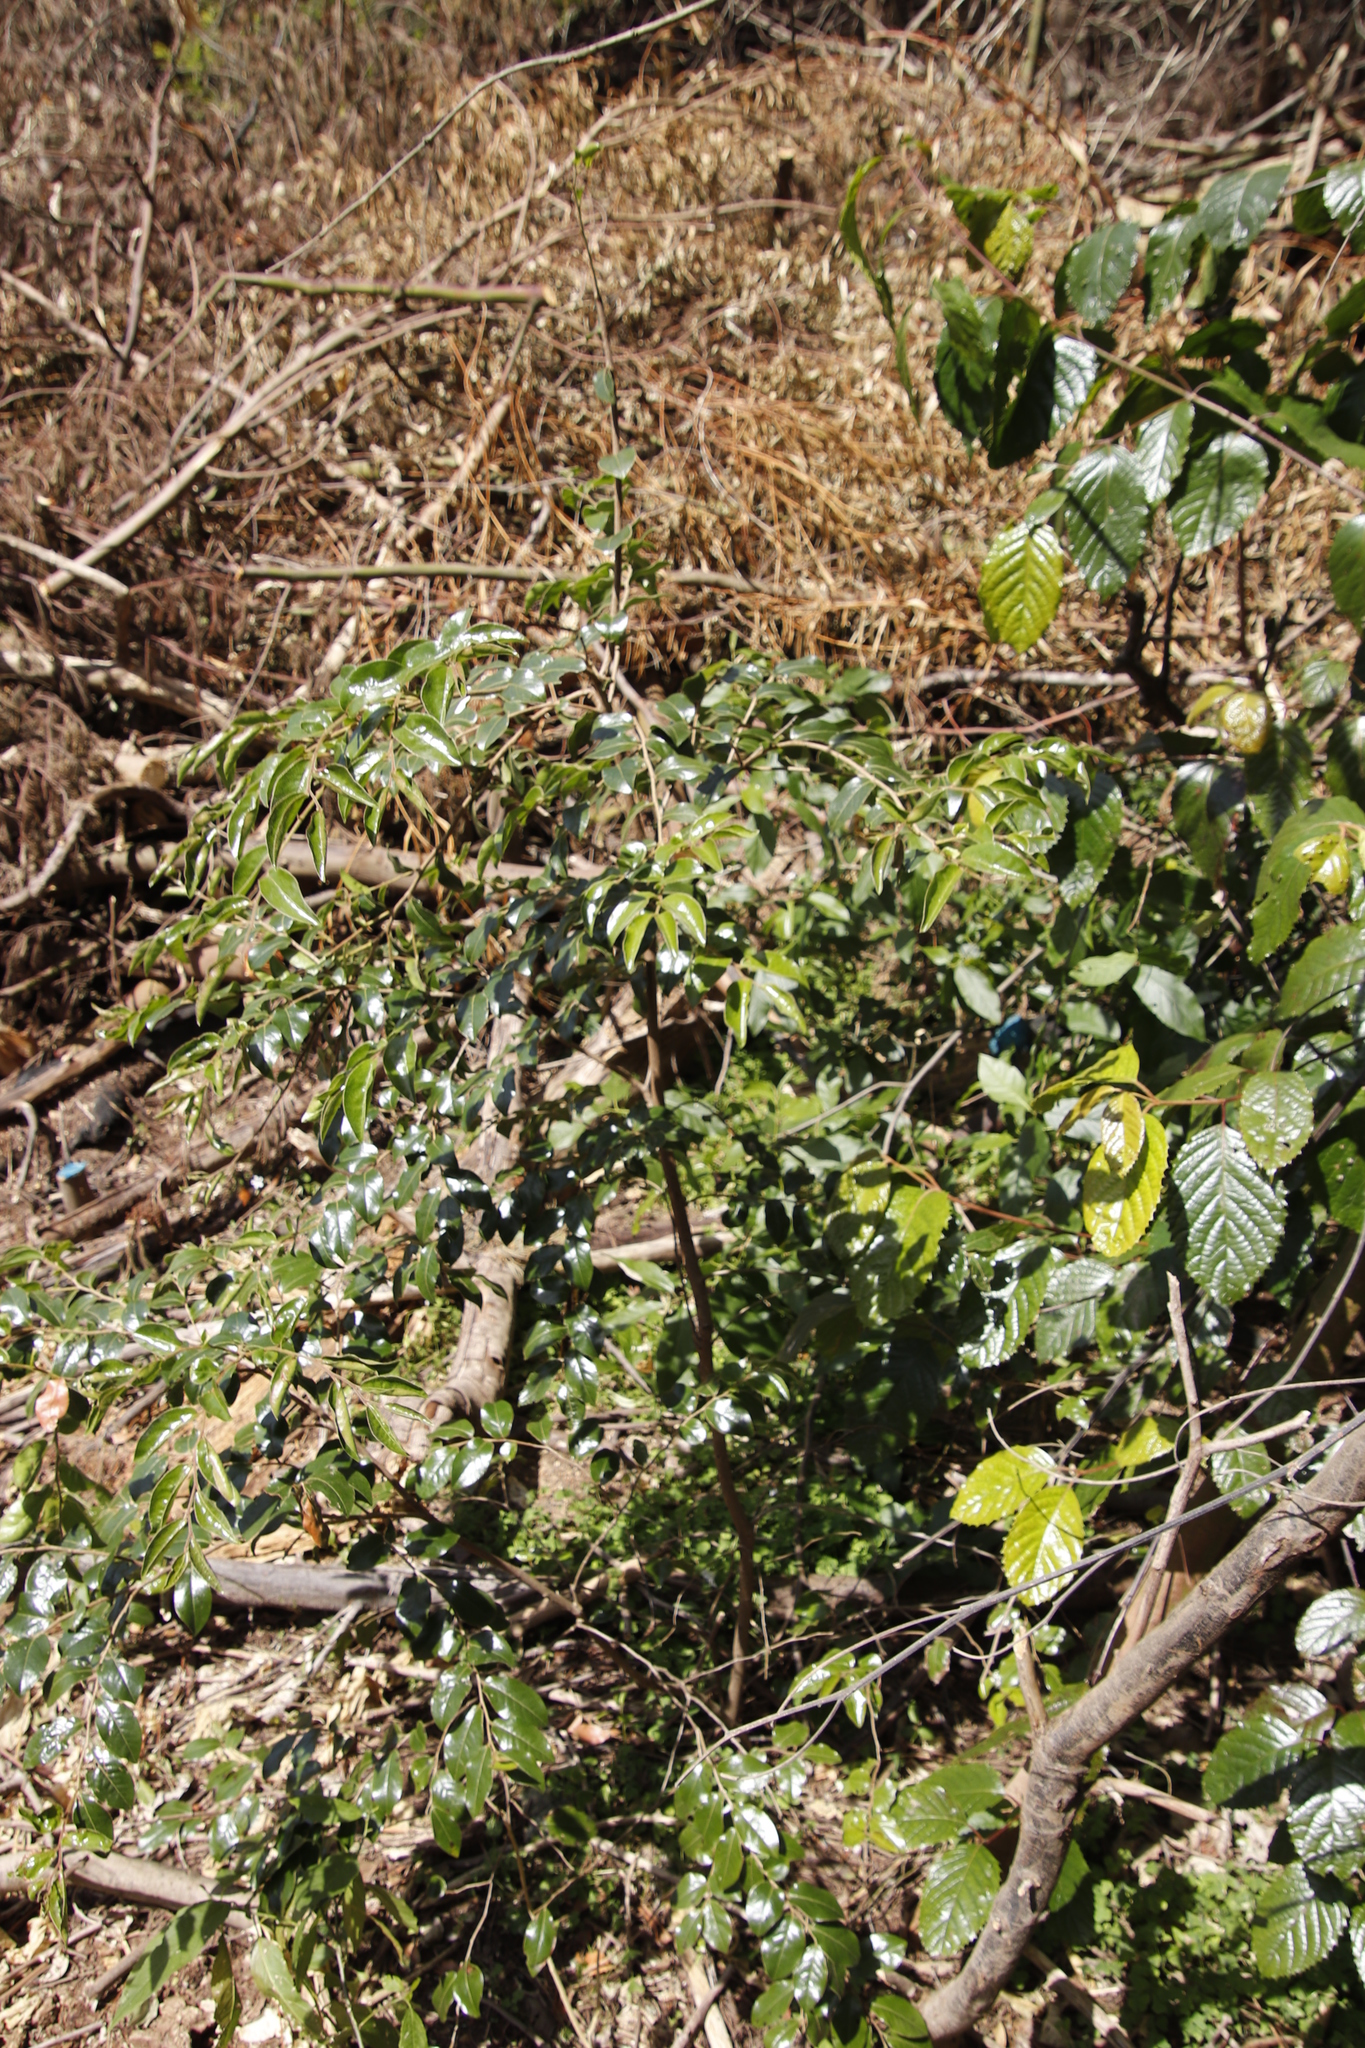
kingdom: Plantae
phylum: Tracheophyta
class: Magnoliopsida
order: Ericales
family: Ebenaceae
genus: Diospyros
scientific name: Diospyros whyteana
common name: Bladder-nut
